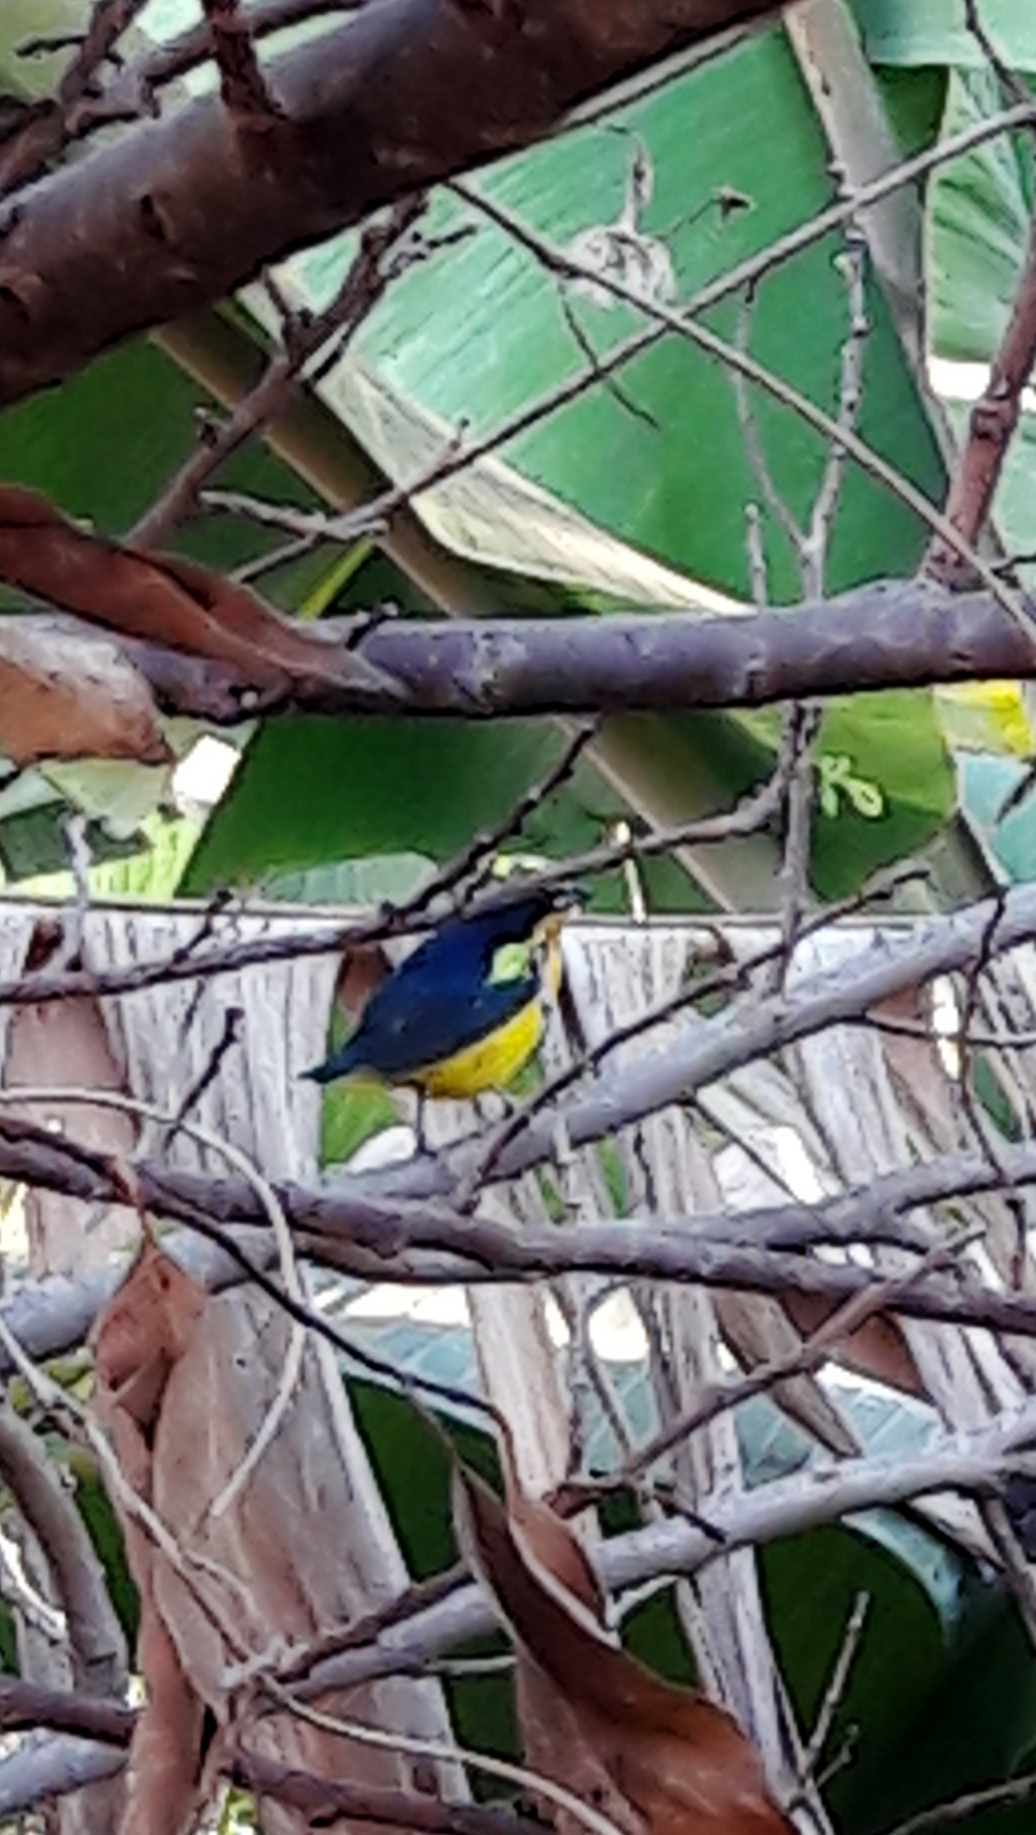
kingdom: Animalia
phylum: Chordata
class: Aves
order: Passeriformes
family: Fringillidae
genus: Euphonia
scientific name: Euphonia violacea
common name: Violaceous euphonia
